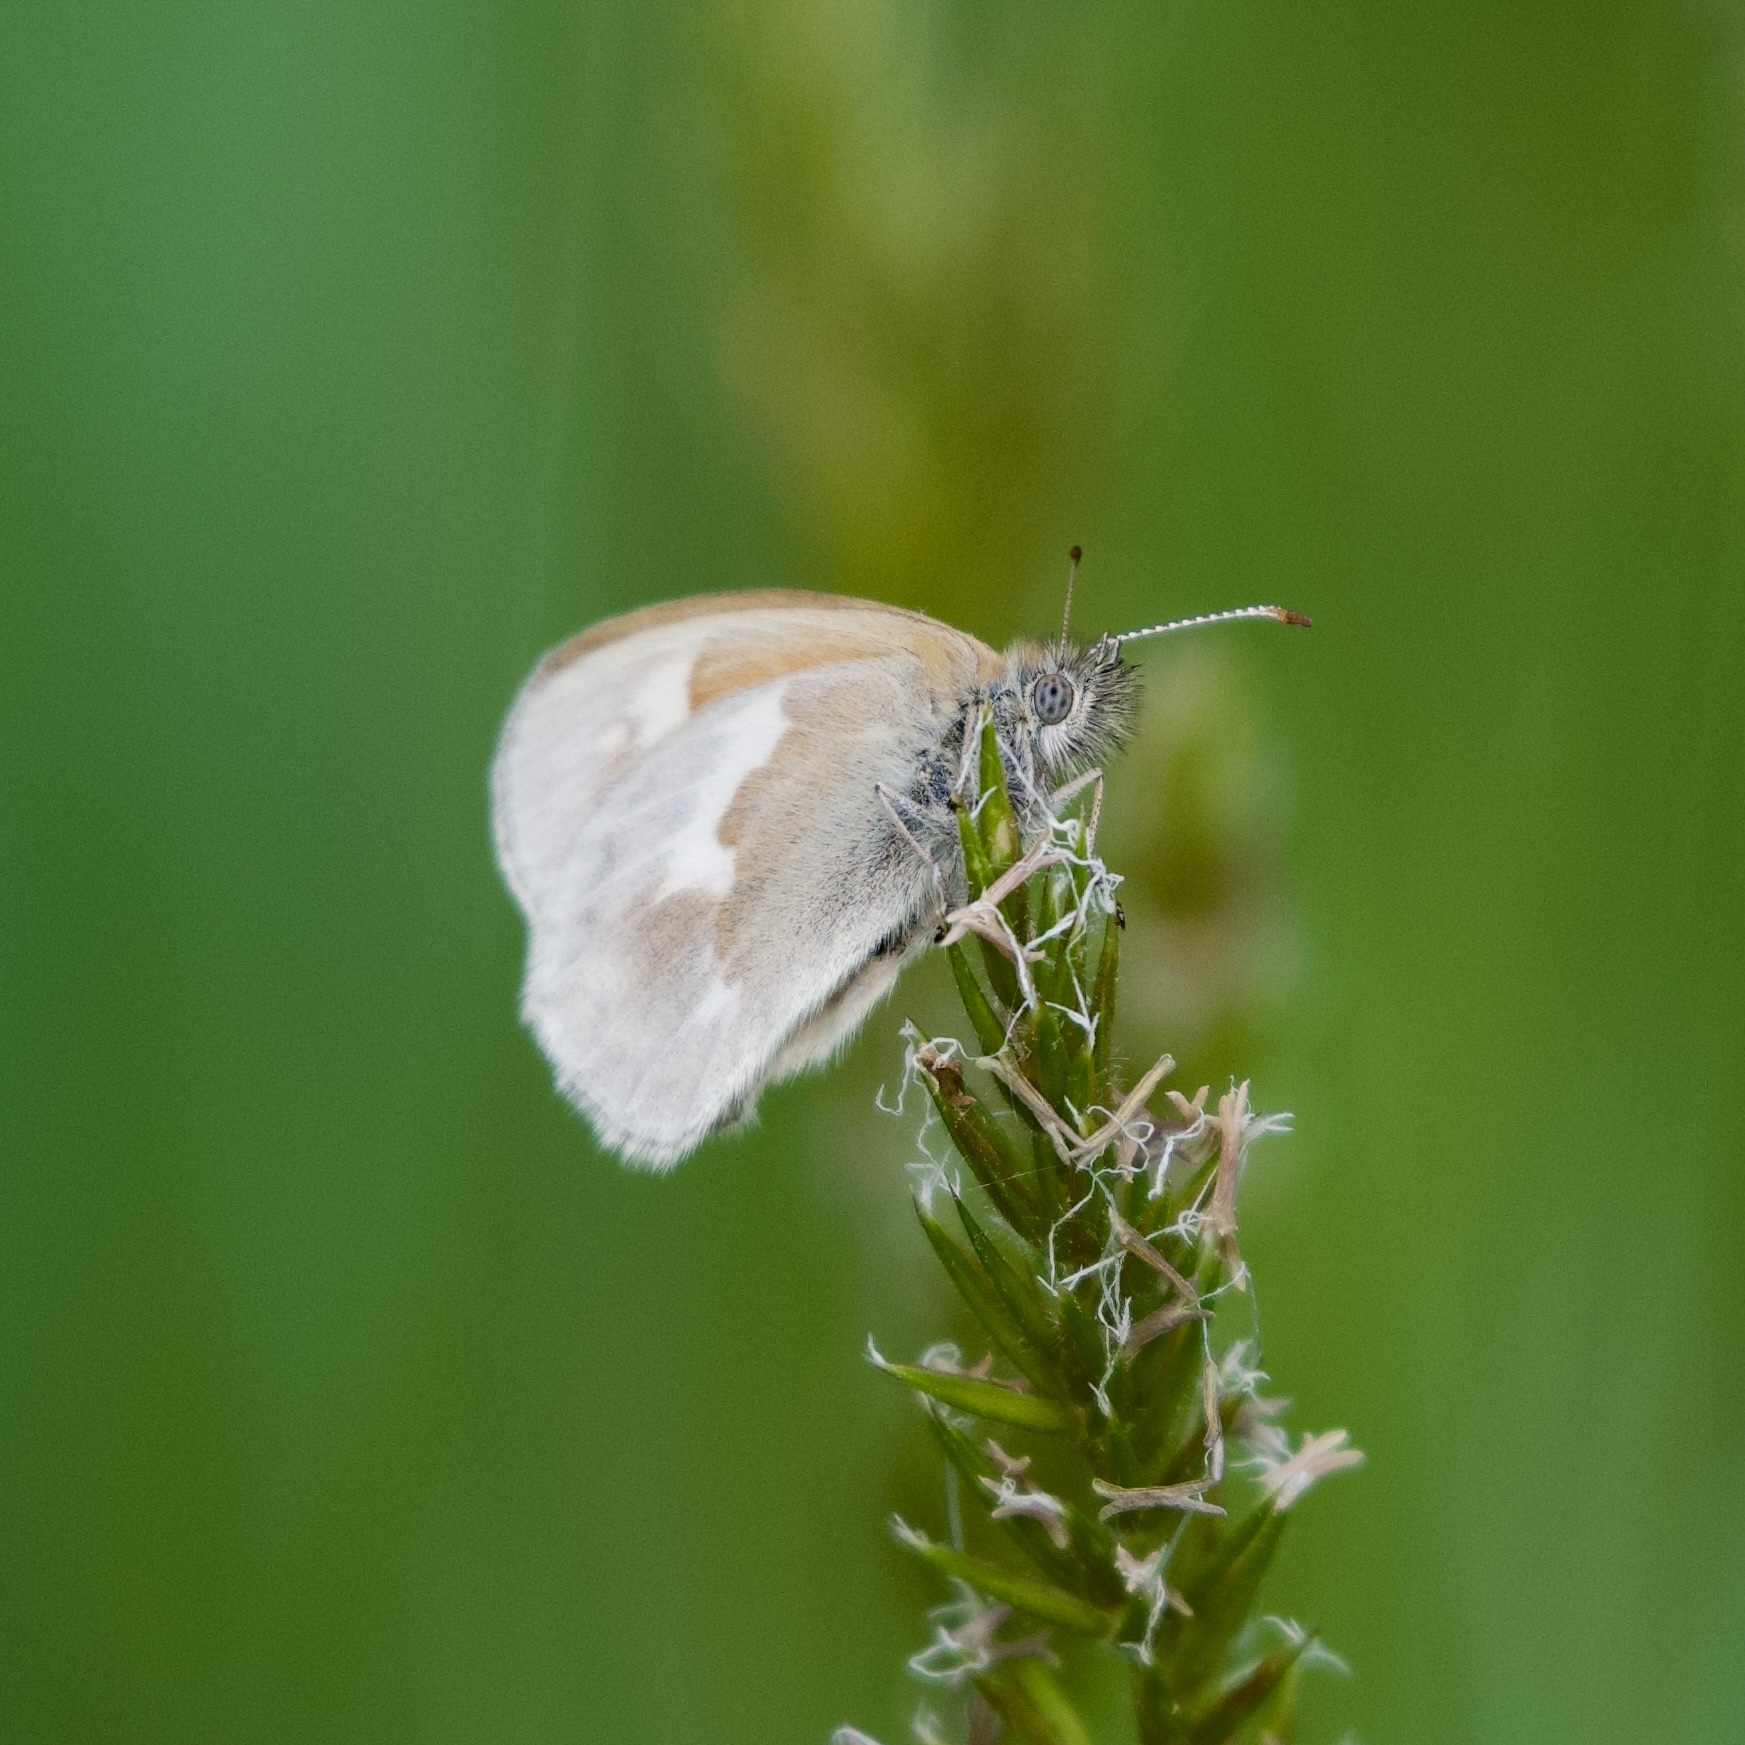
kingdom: Animalia
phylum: Arthropoda
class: Insecta
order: Lepidoptera
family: Nymphalidae
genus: Coenonympha
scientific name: Coenonympha california
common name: Common ringlet
